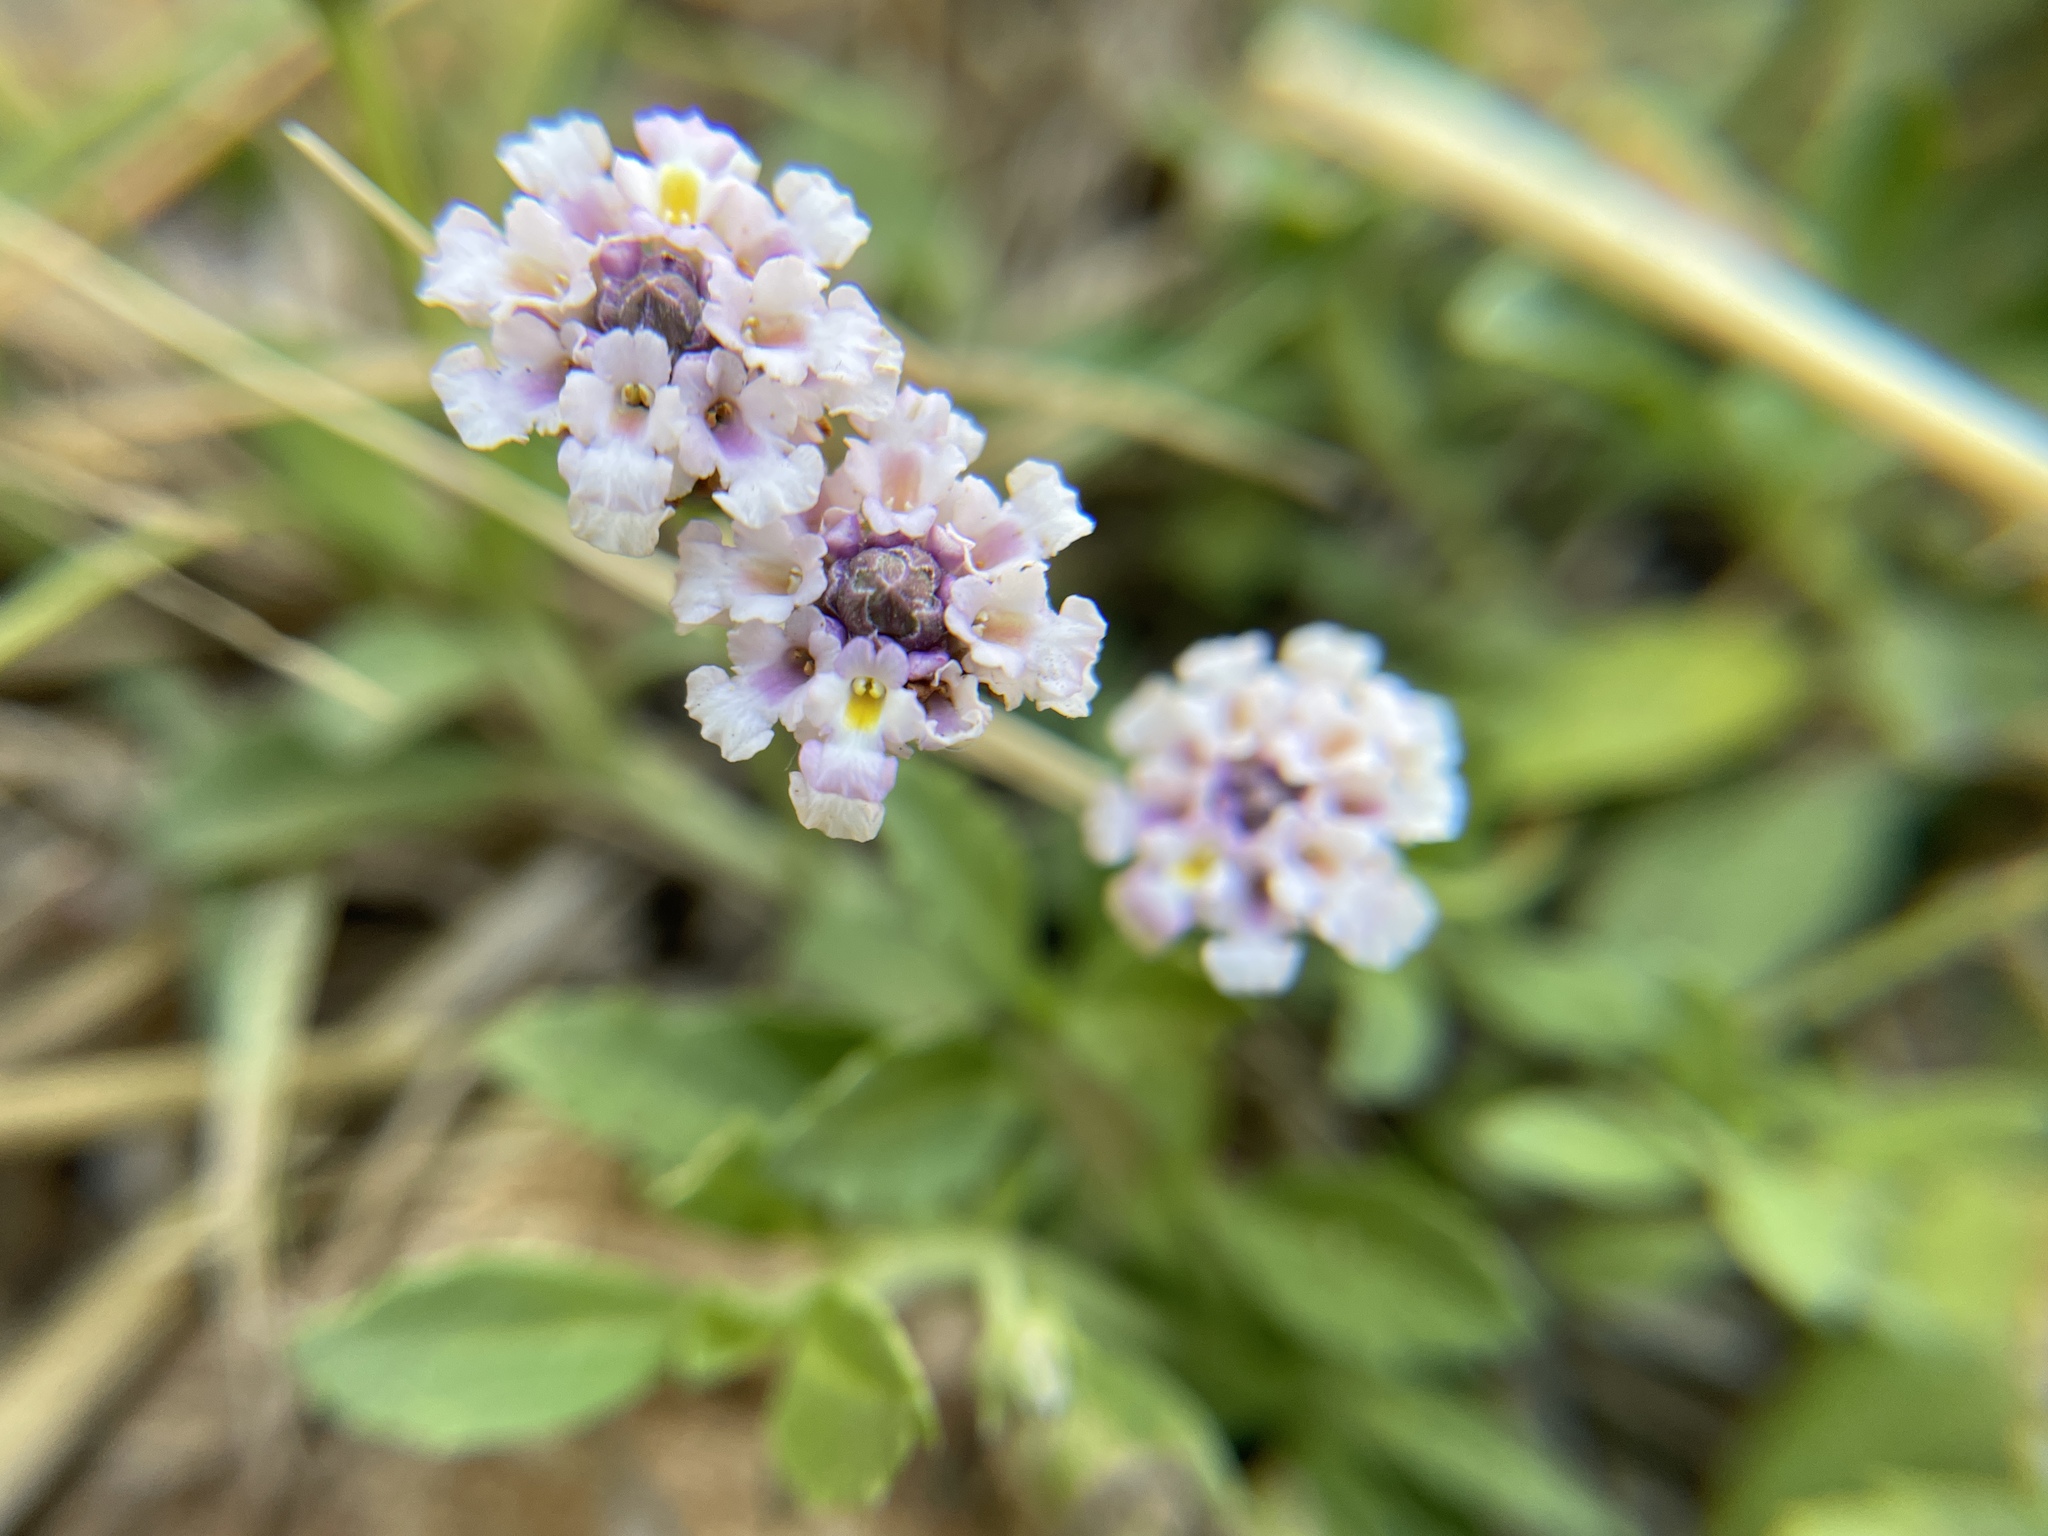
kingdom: Plantae
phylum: Tracheophyta
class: Magnoliopsida
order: Lamiales
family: Verbenaceae
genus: Phyla
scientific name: Phyla nodiflora
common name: Frogfruit
